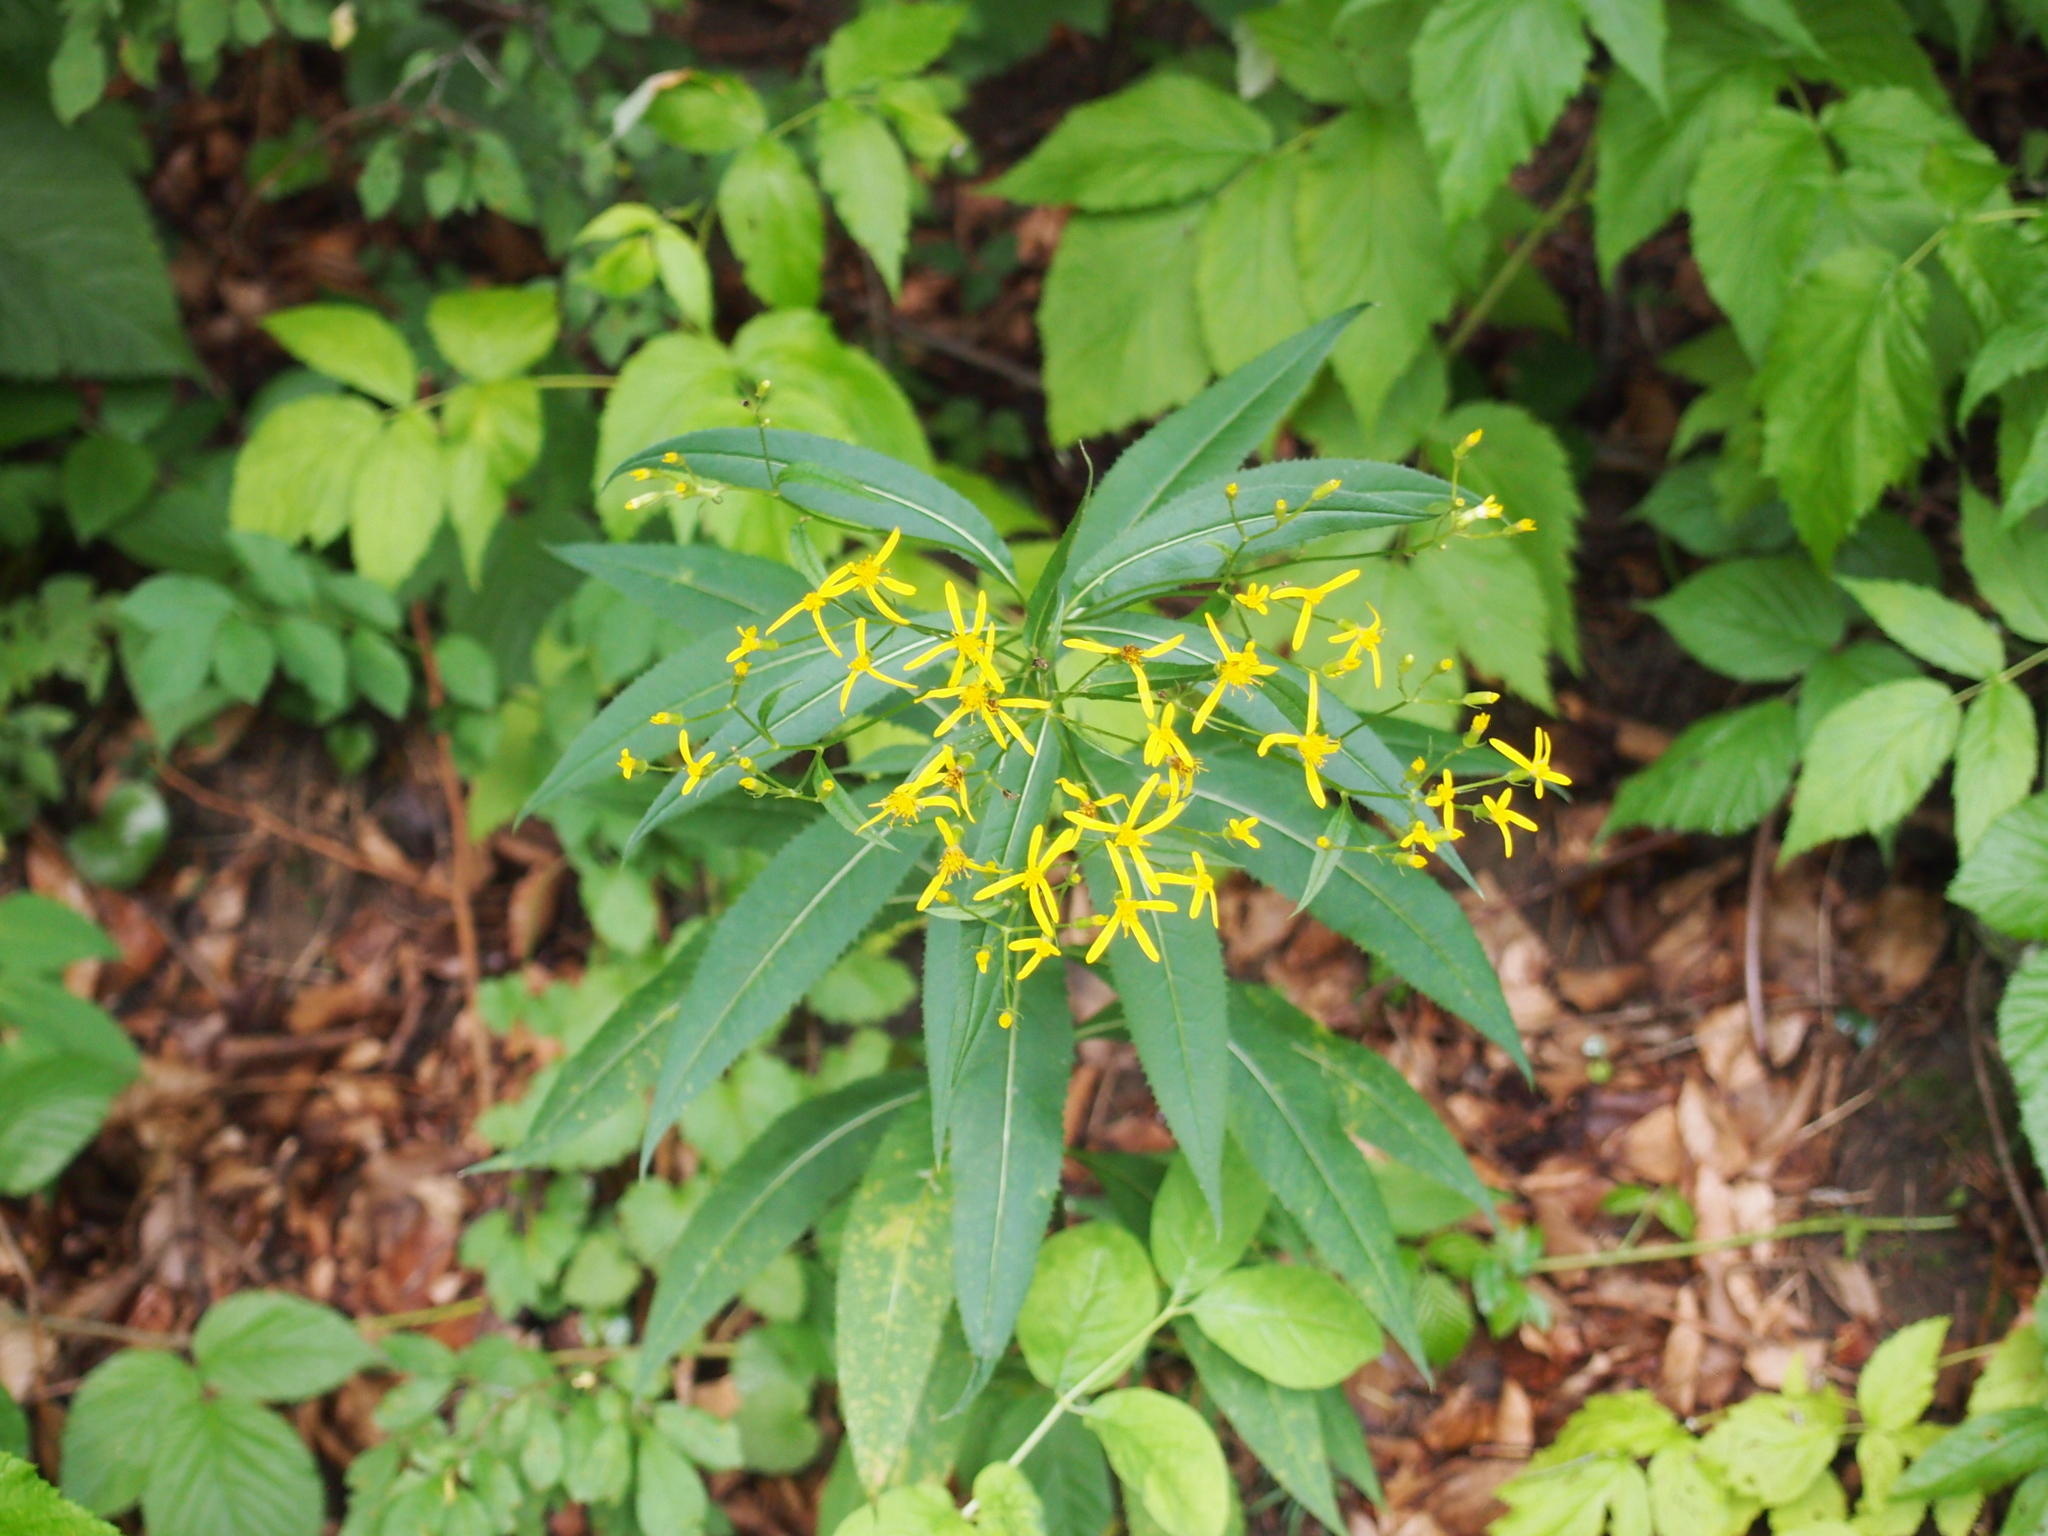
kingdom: Plantae
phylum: Tracheophyta
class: Magnoliopsida
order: Asterales
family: Asteraceae
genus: Senecio
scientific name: Senecio ovatus
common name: Wood ragwort
